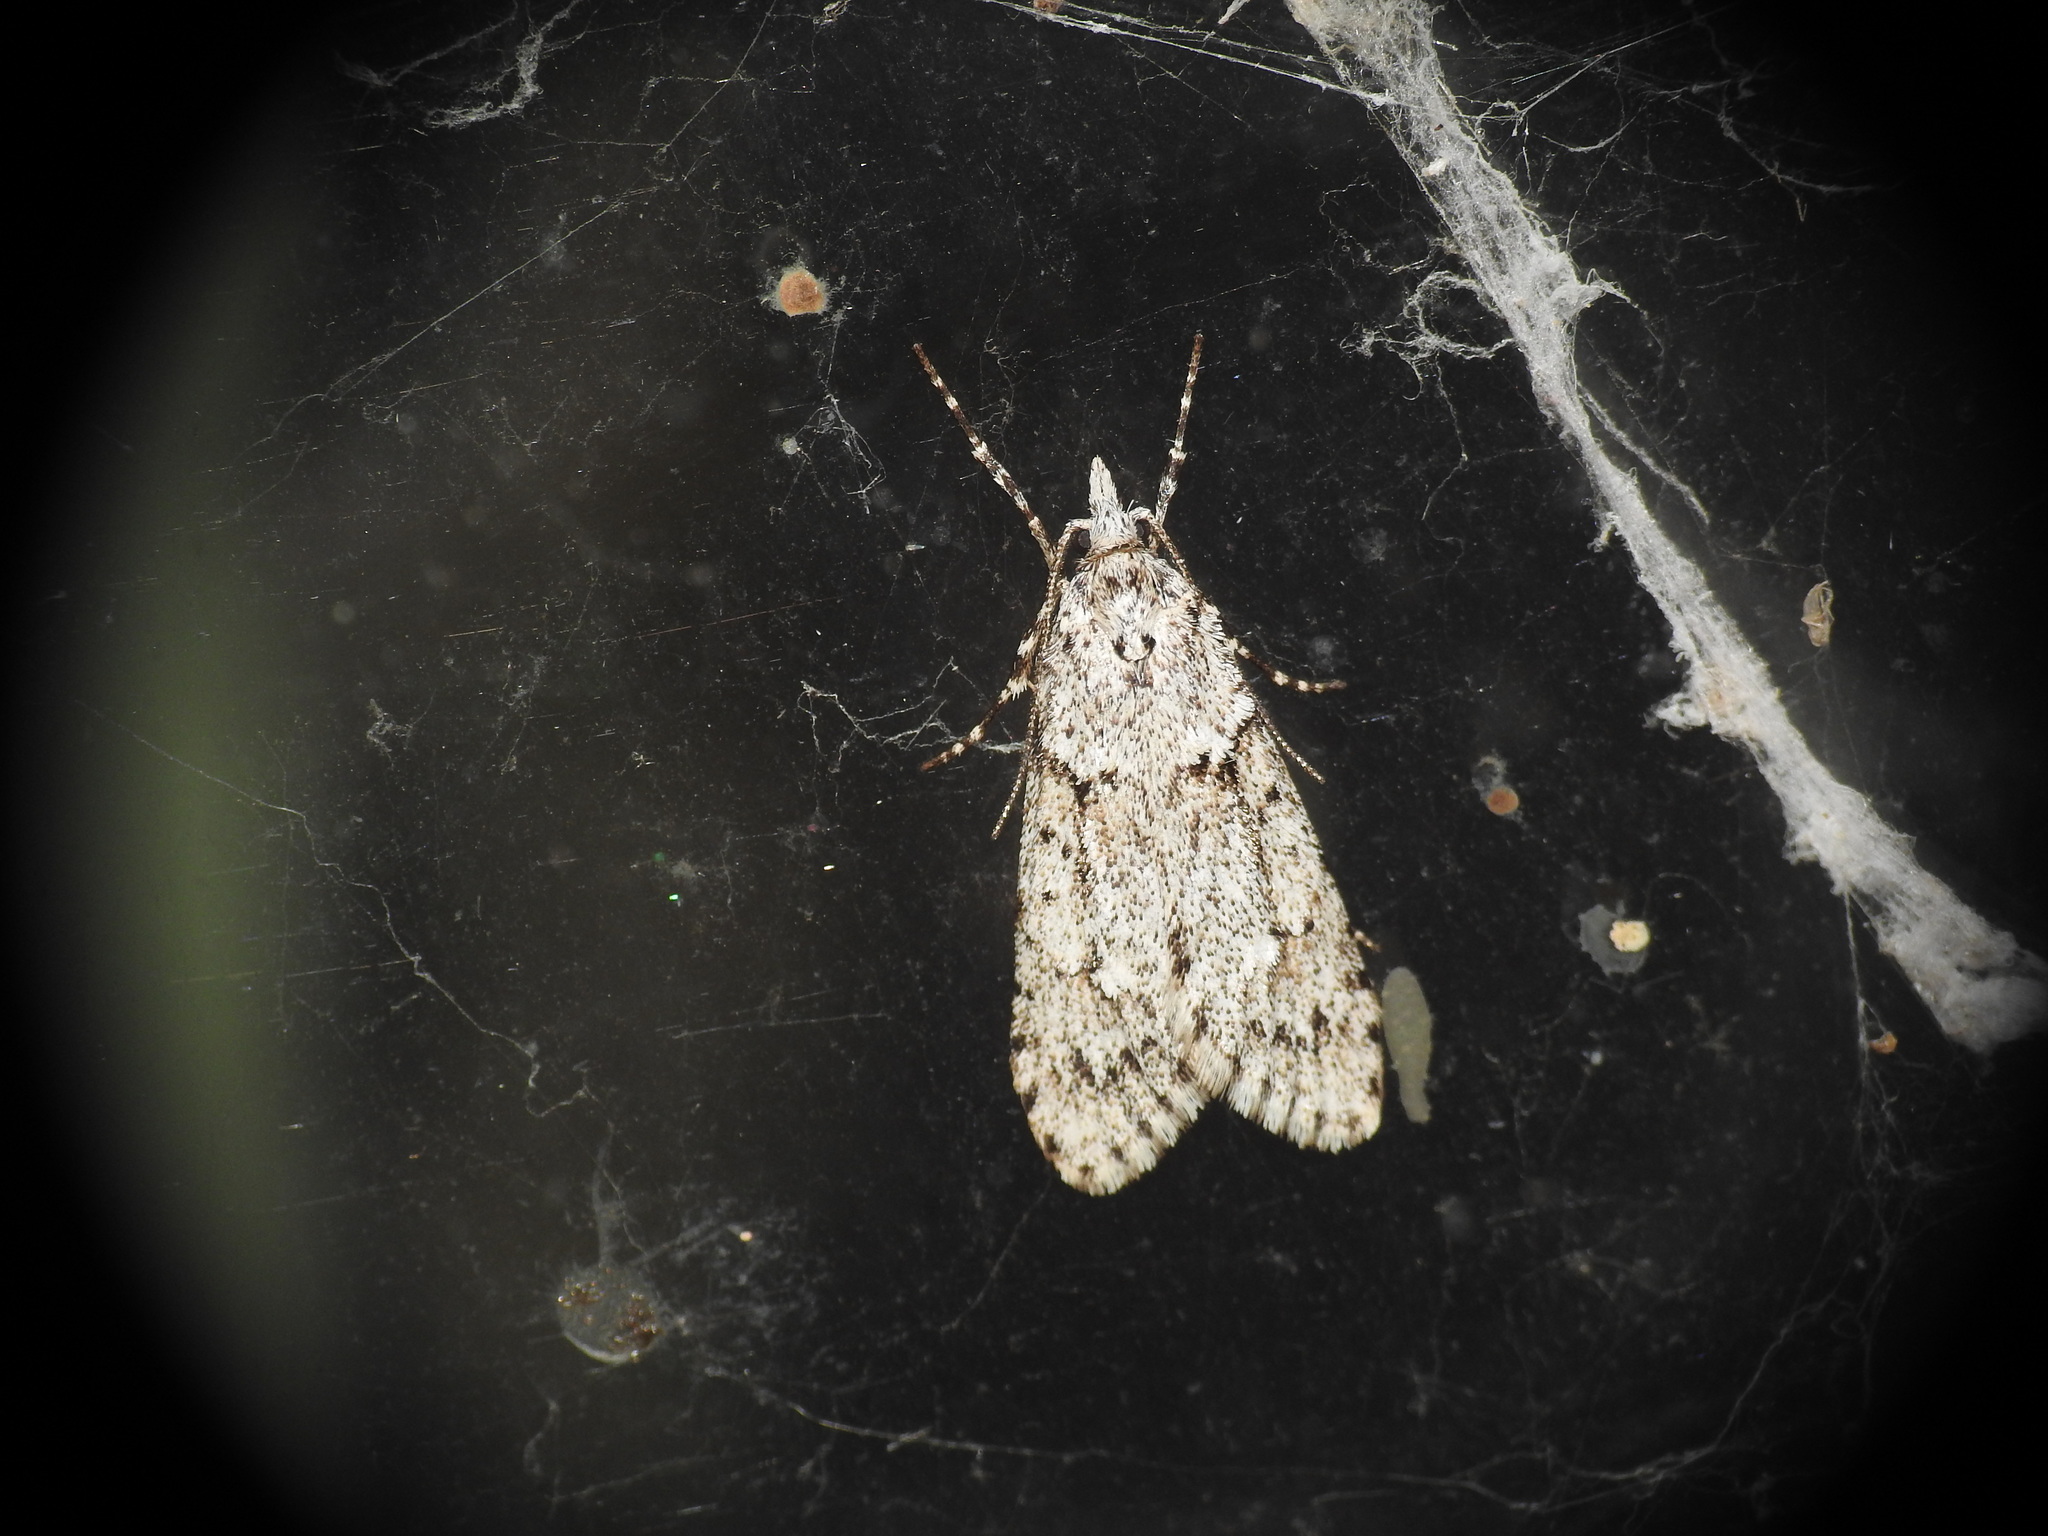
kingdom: Animalia
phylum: Arthropoda
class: Insecta
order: Lepidoptera
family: Lypusidae
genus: Diurnea
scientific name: Diurnea fagella
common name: March tubic
